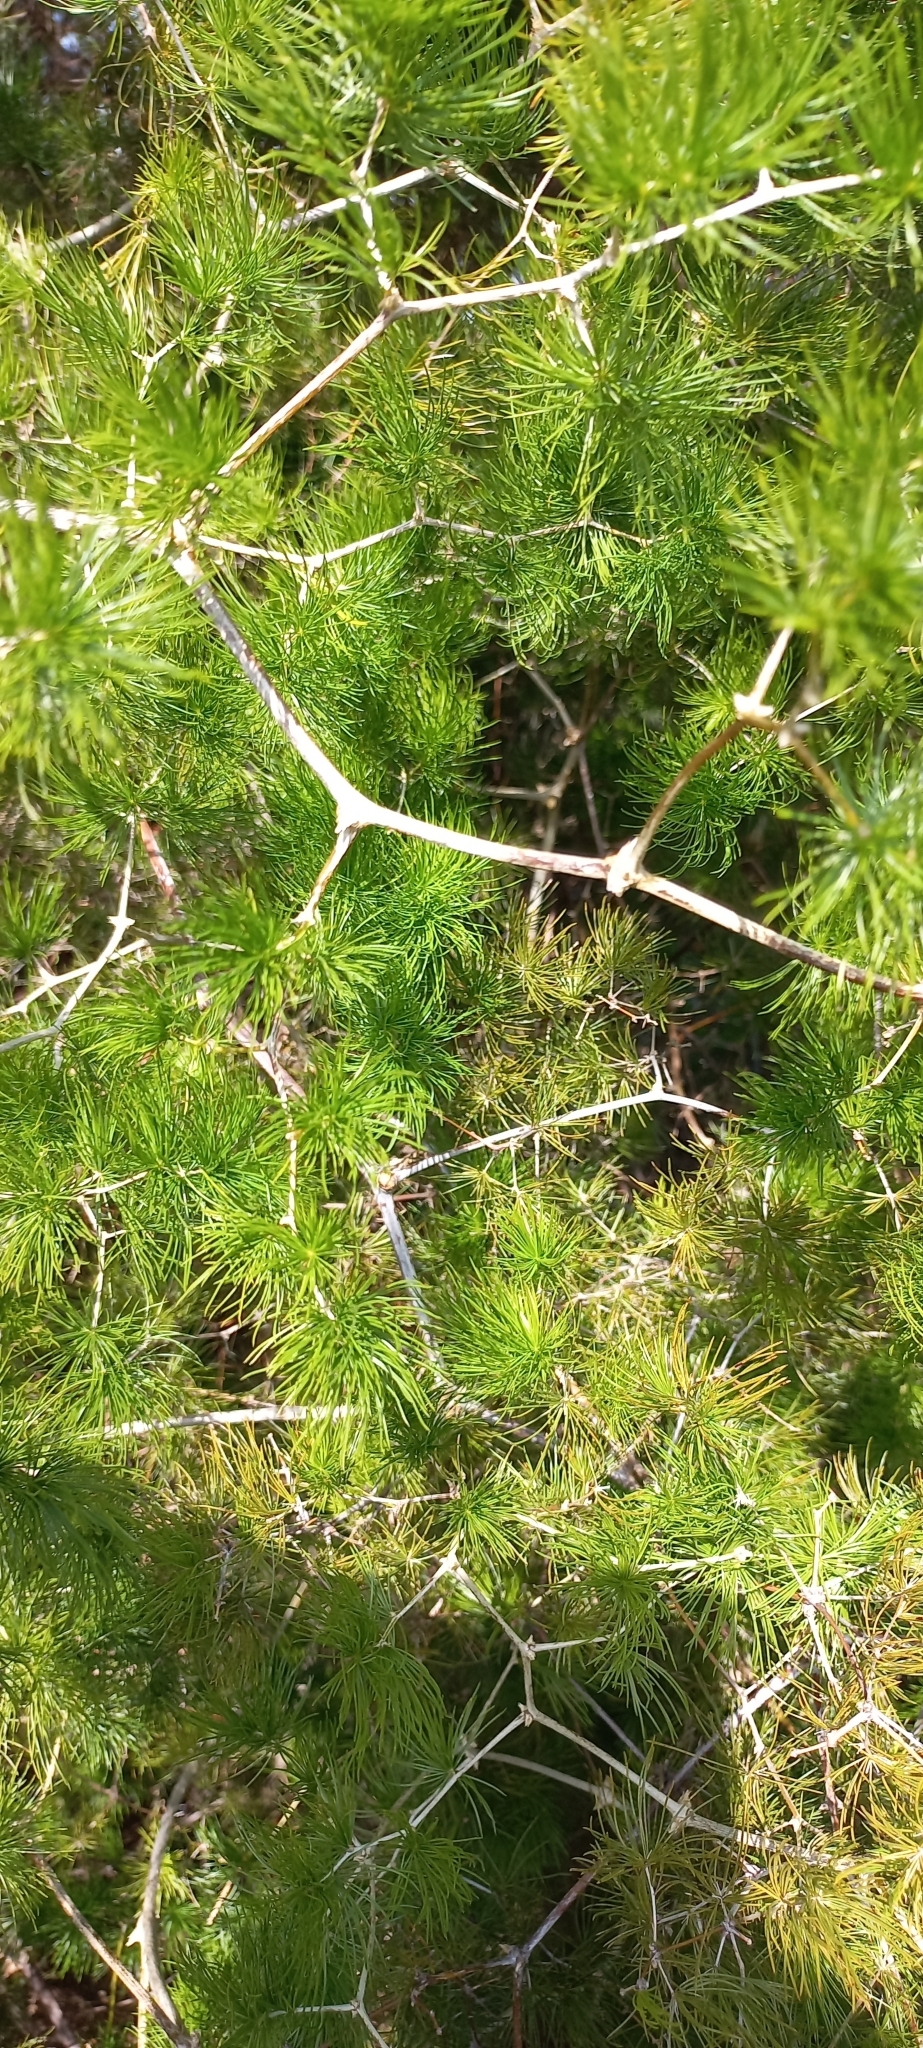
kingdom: Plantae
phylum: Tracheophyta
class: Liliopsida
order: Asparagales
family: Asparagaceae
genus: Asparagus
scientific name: Asparagus retrofractus
